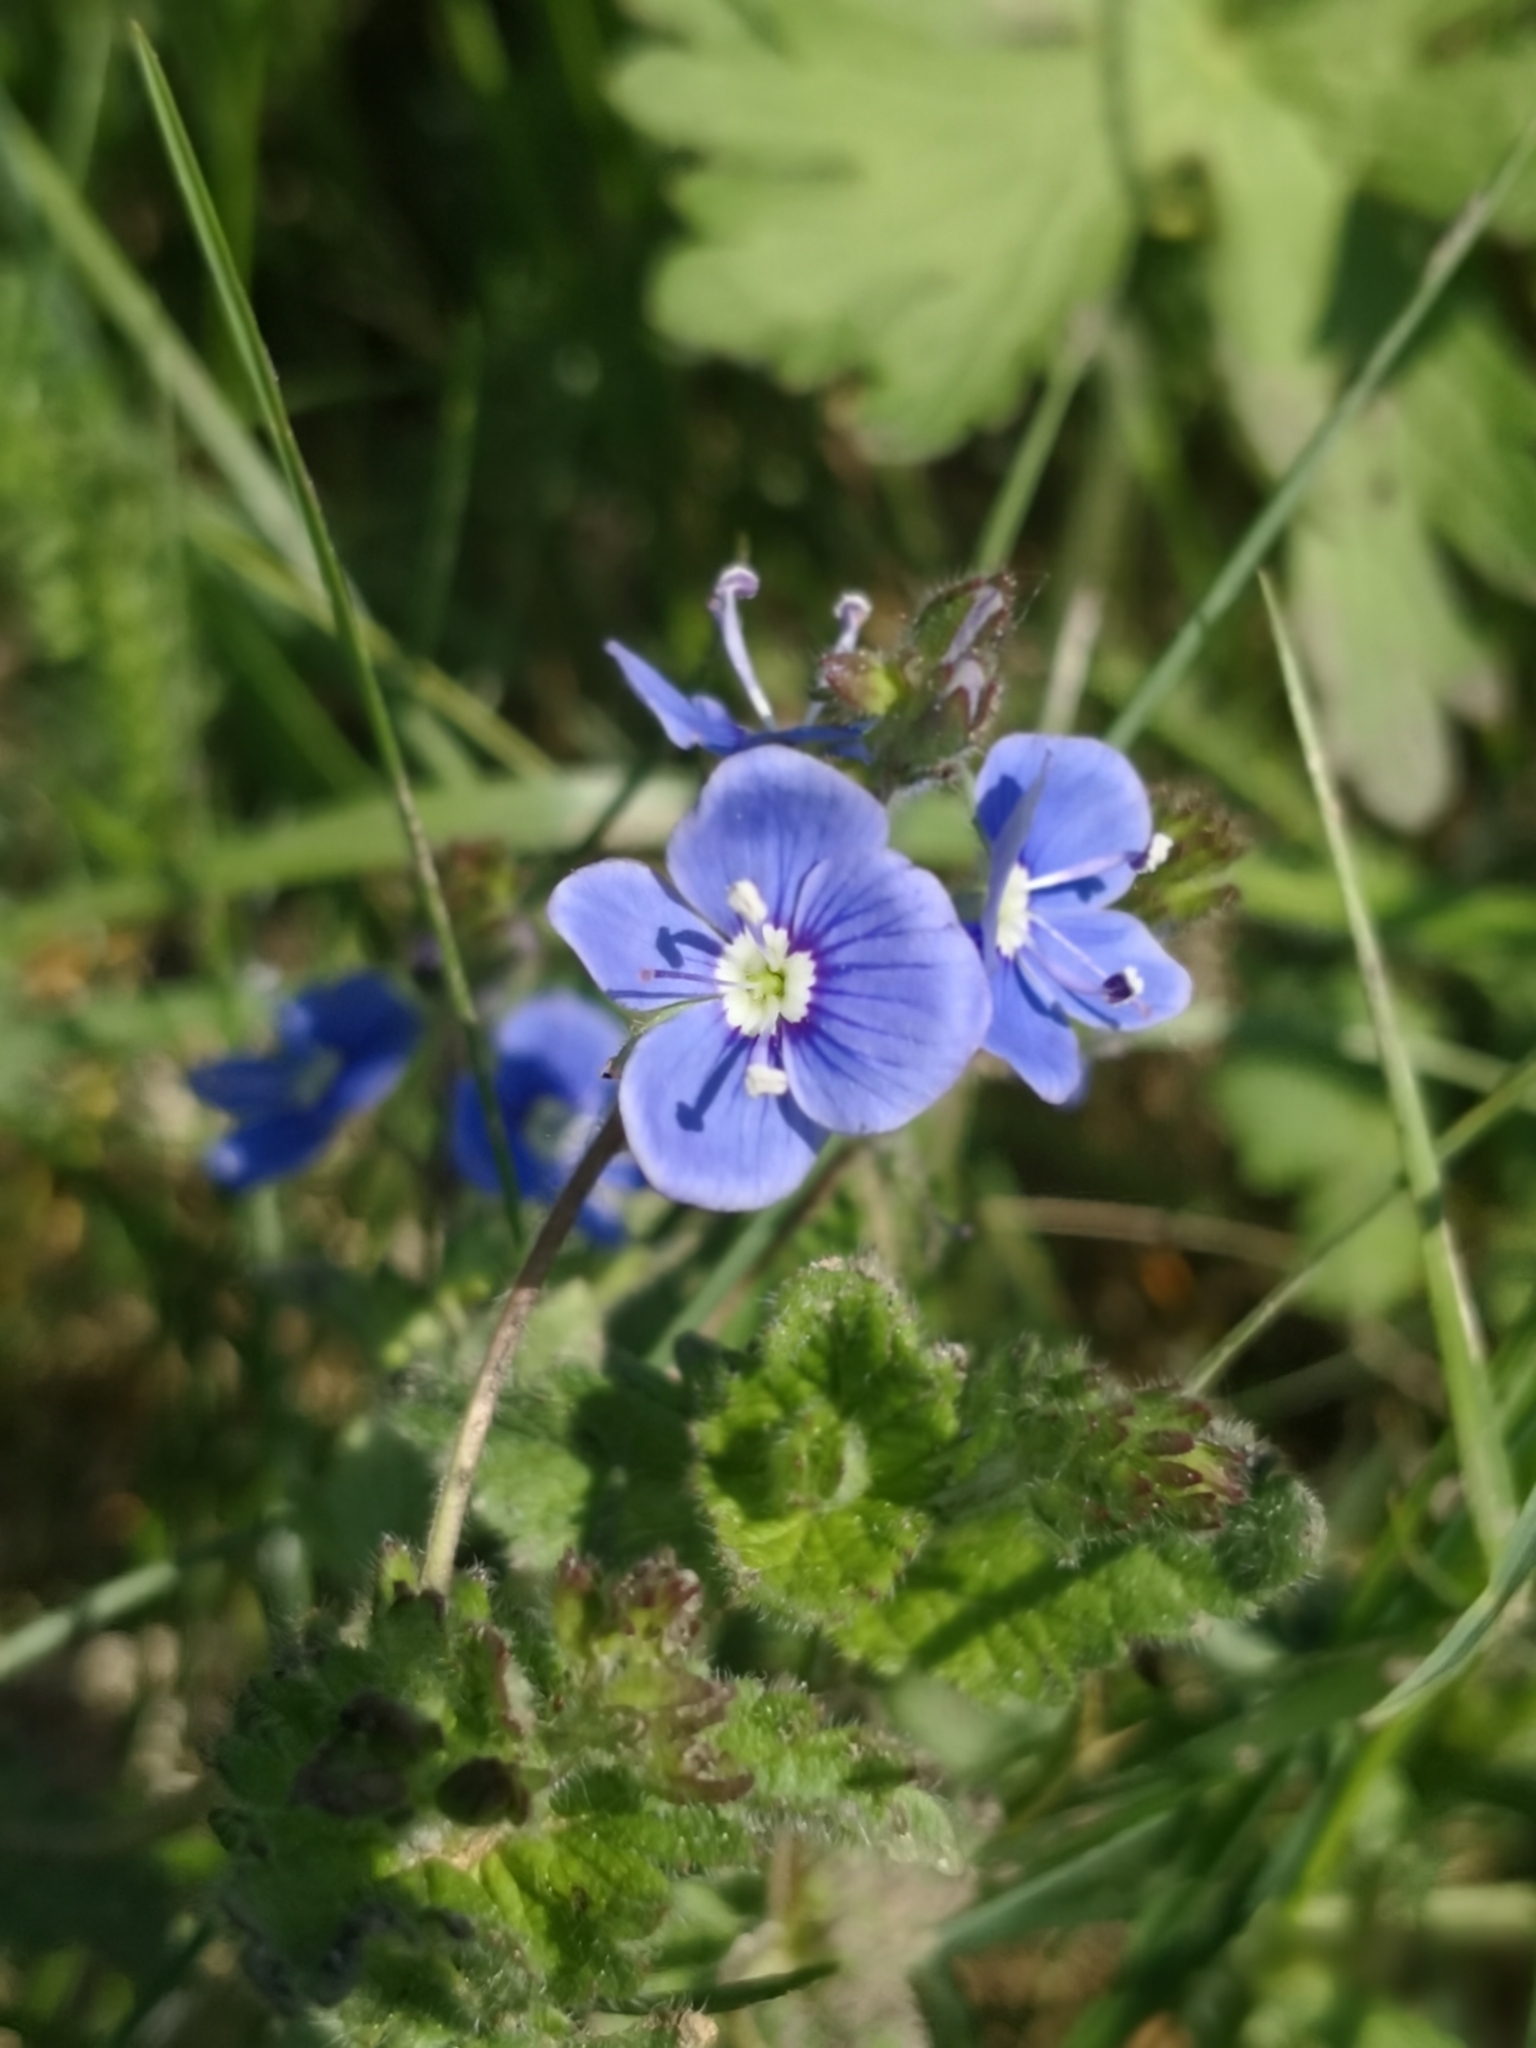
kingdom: Plantae
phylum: Tracheophyta
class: Magnoliopsida
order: Lamiales
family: Plantaginaceae
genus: Veronica
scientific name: Veronica chamaedrys
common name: Germander speedwell
